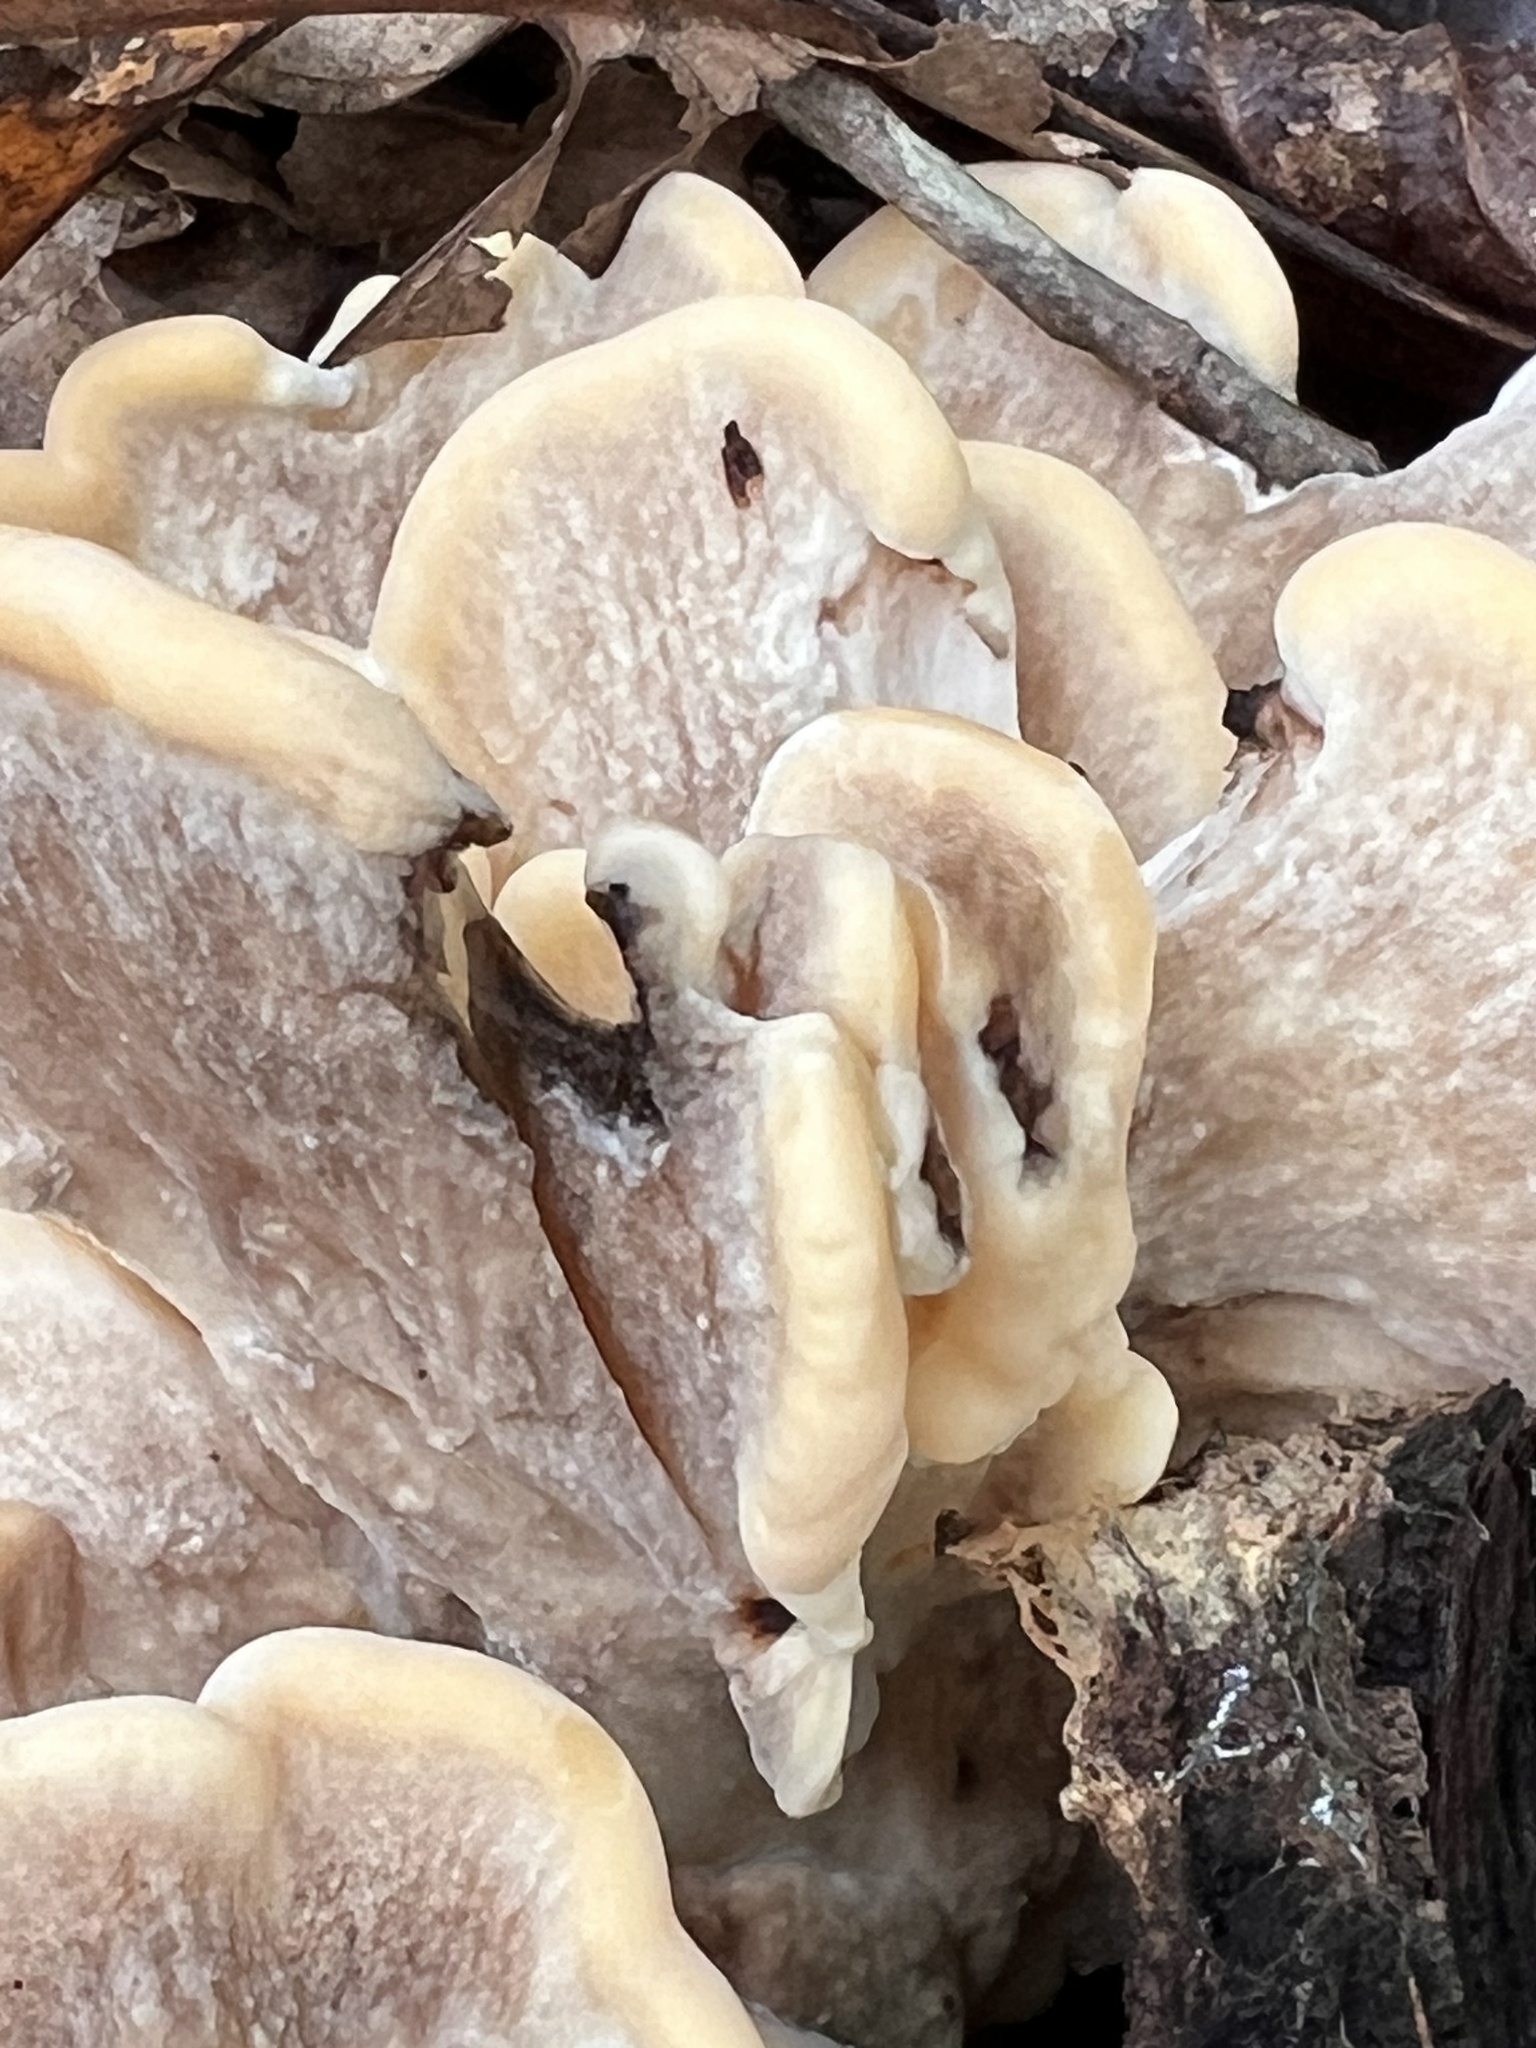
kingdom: Fungi
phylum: Basidiomycota
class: Agaricomycetes
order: Polyporales
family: Meripilaceae
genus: Meripilus
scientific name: Meripilus sumstinei
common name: Black-staining polypore
